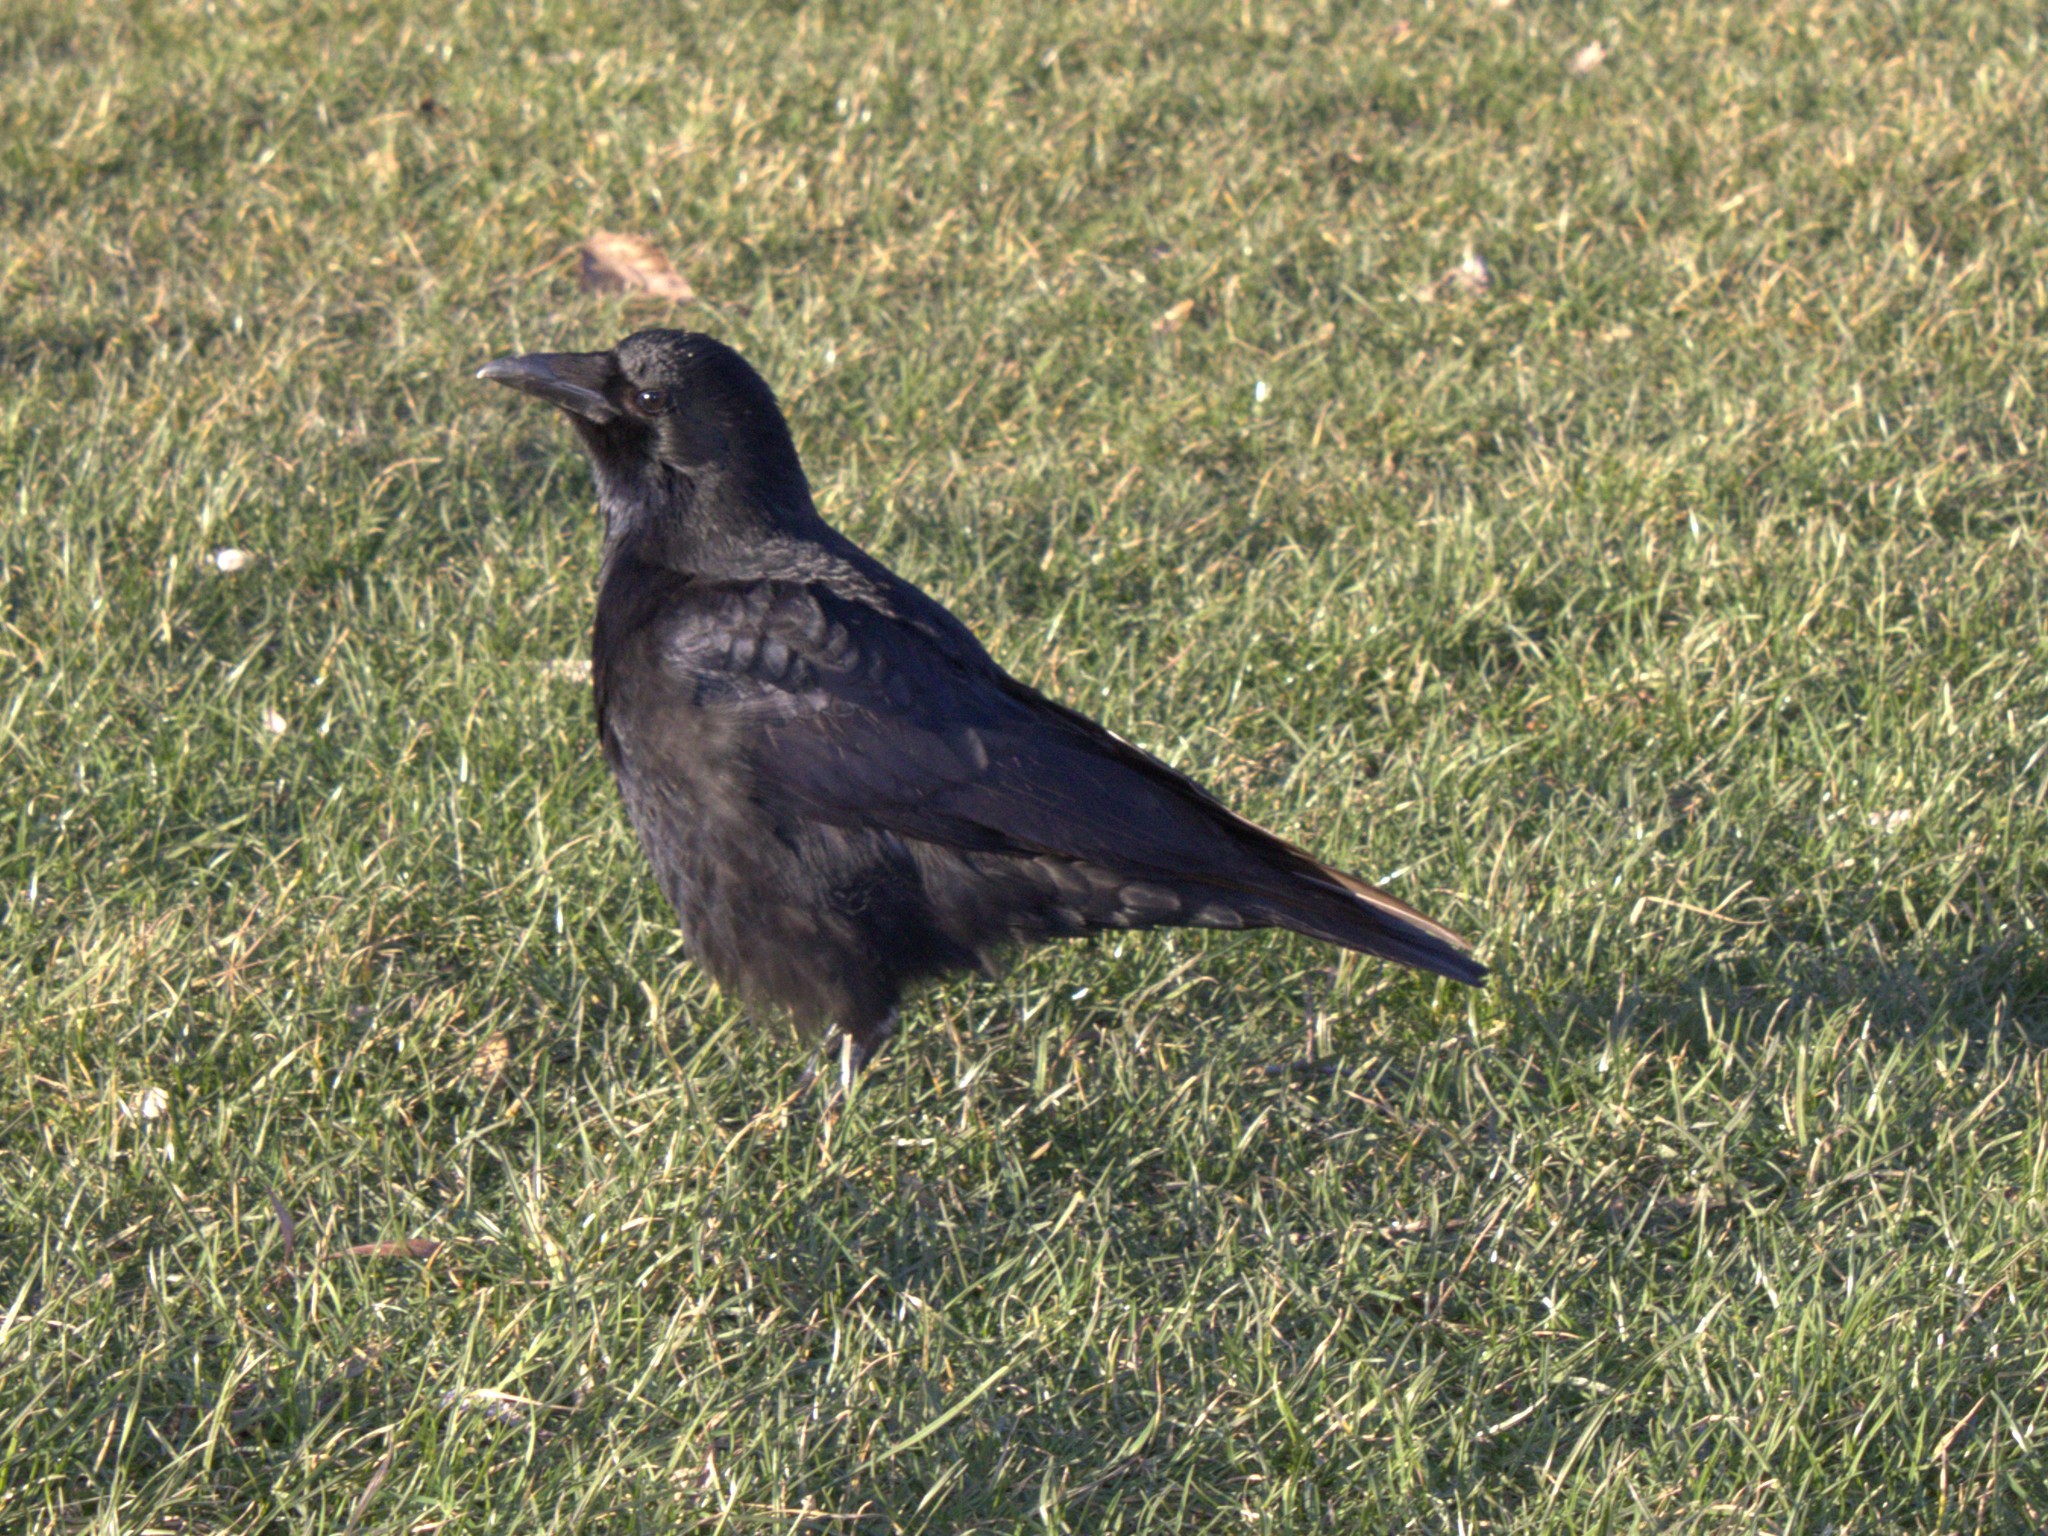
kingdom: Animalia
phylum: Chordata
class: Aves
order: Passeriformes
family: Corvidae
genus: Corvus
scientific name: Corvus corone
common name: Carrion crow
